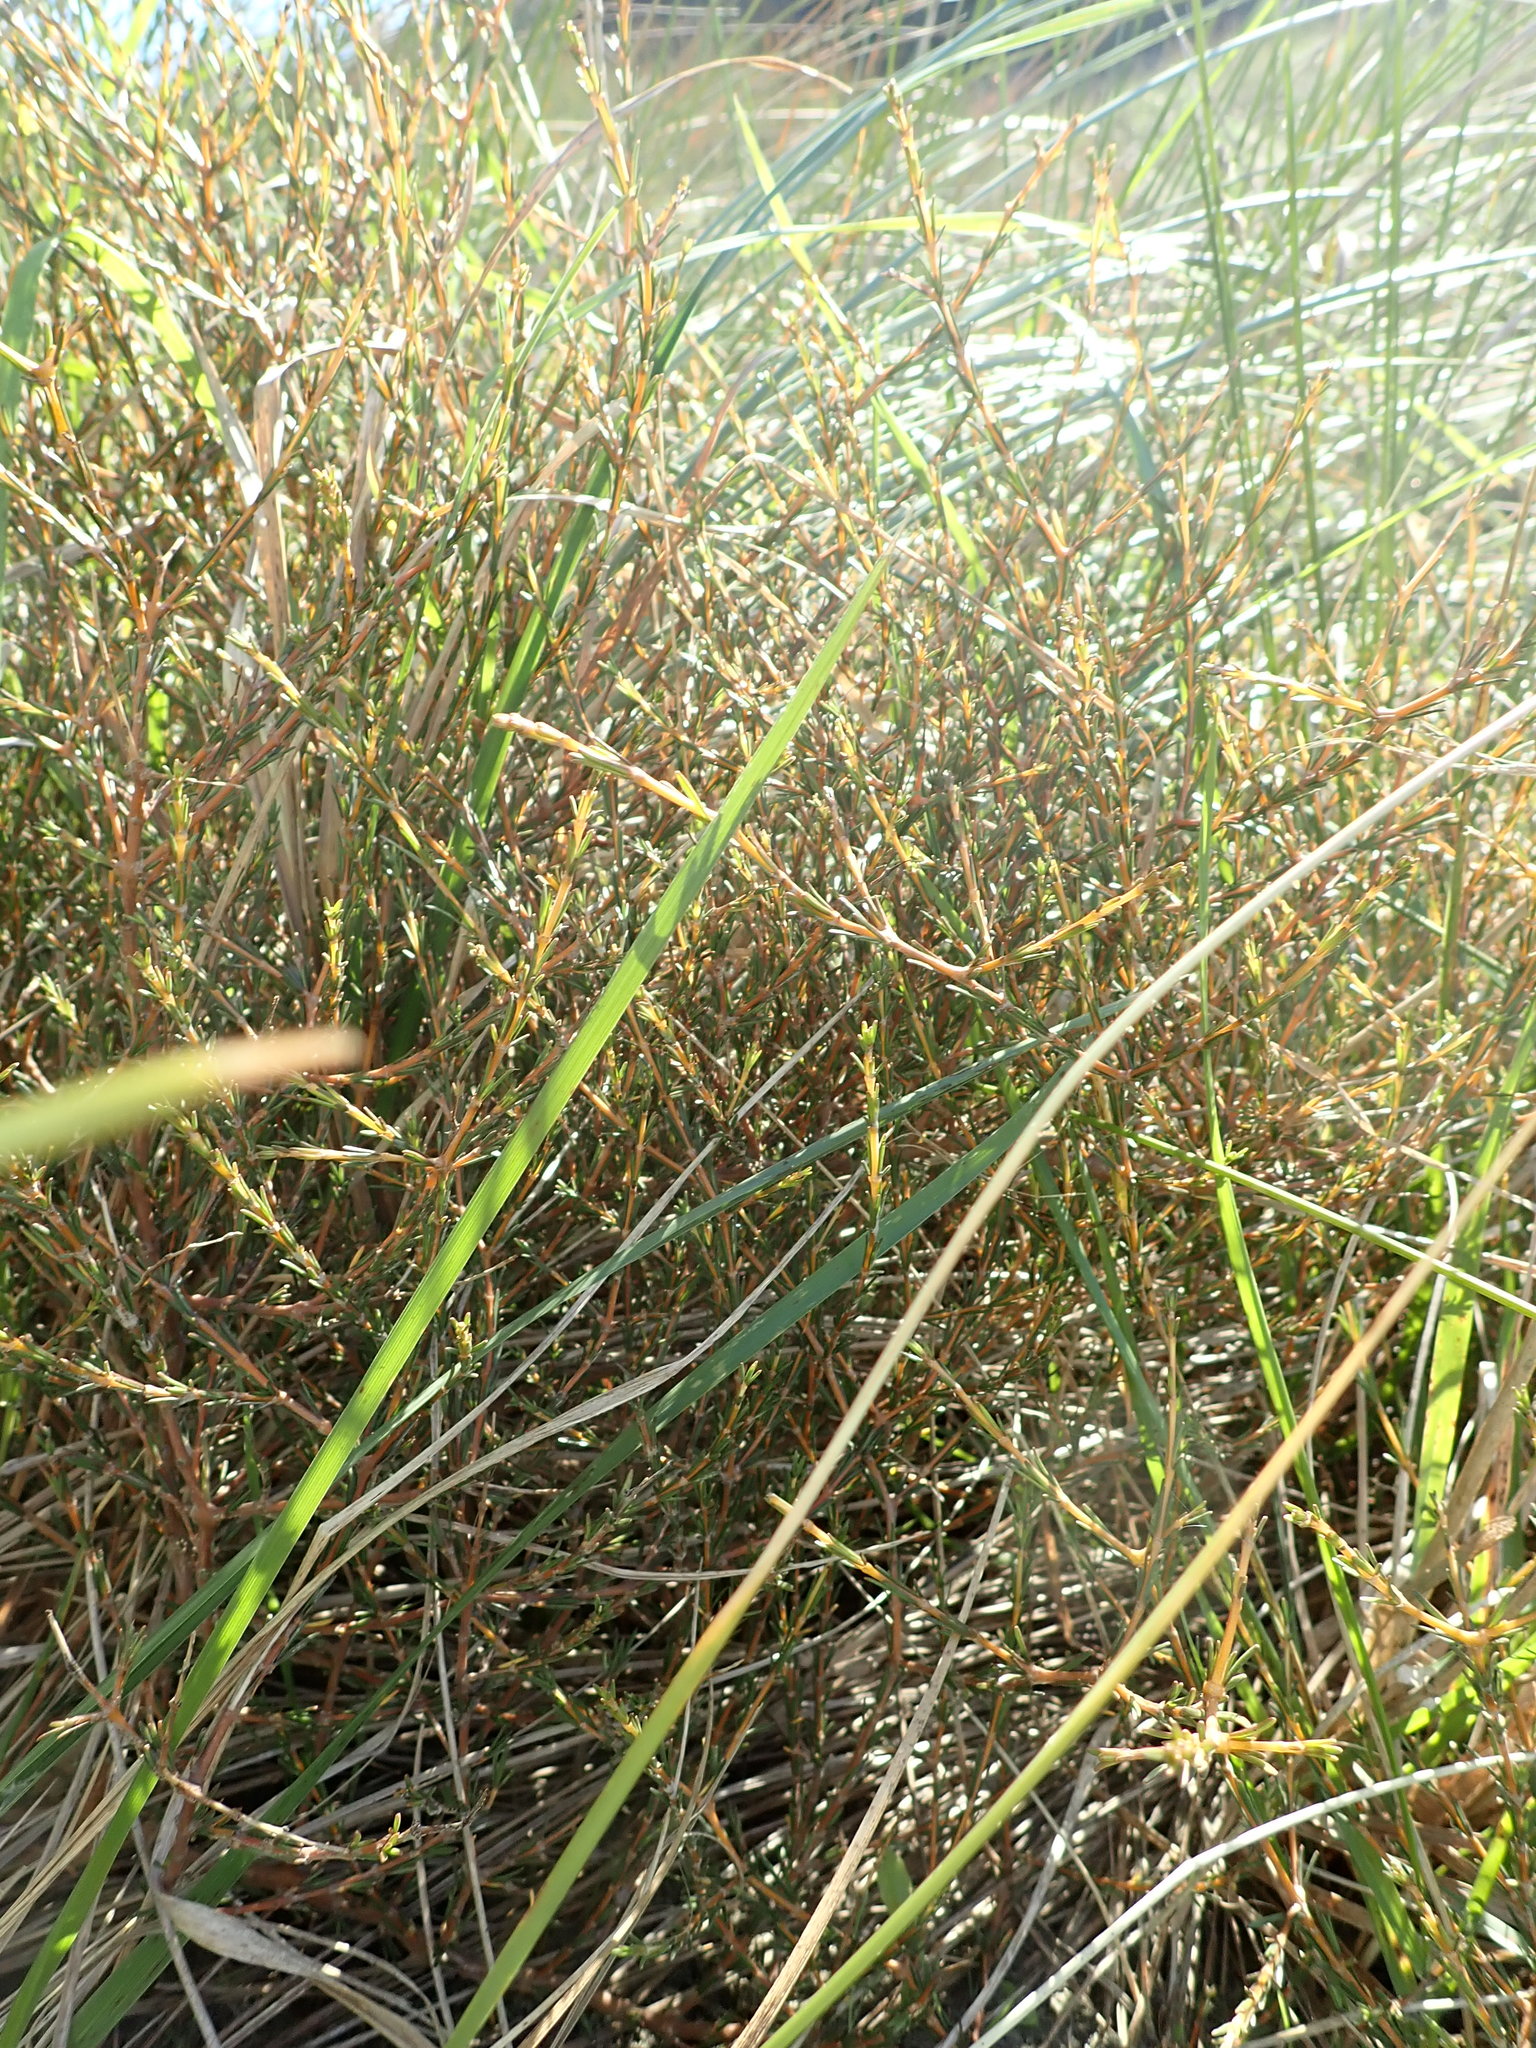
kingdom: Plantae
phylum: Tracheophyta
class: Magnoliopsida
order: Gentianales
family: Rubiaceae
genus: Coprosma
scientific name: Coprosma acerosa
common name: Sand coprosma
